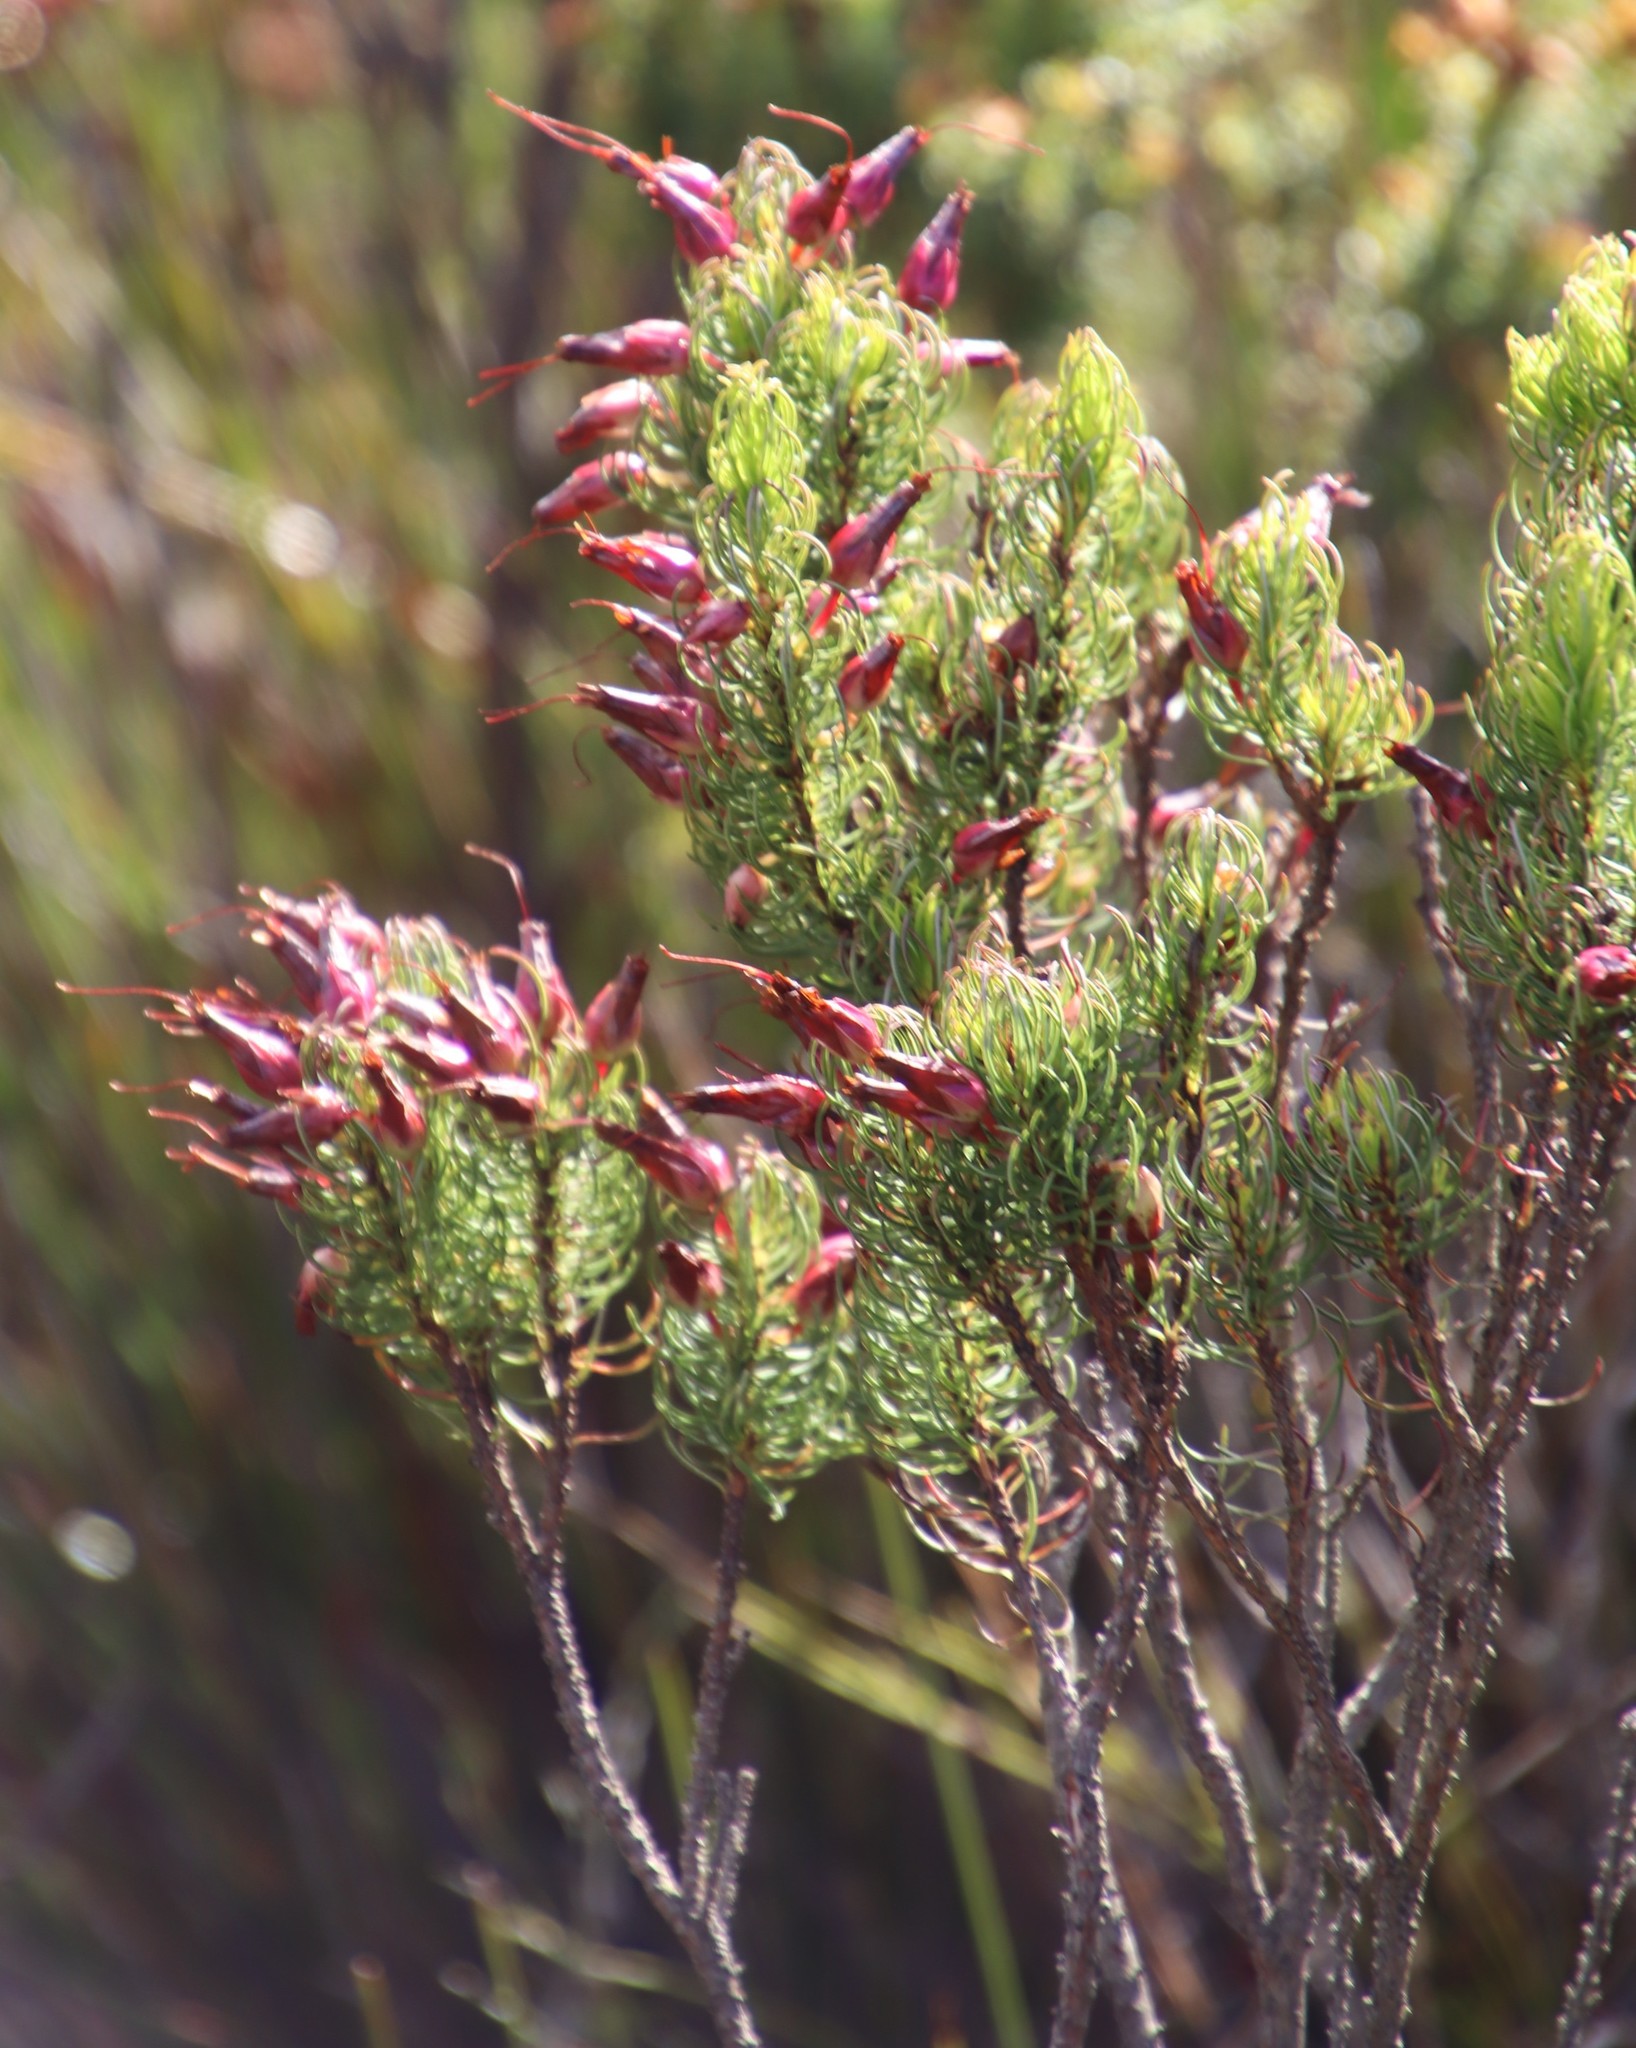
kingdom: Plantae
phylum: Tracheophyta
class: Magnoliopsida
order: Ericales
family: Ericaceae
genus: Erica
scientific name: Erica plukenetii
